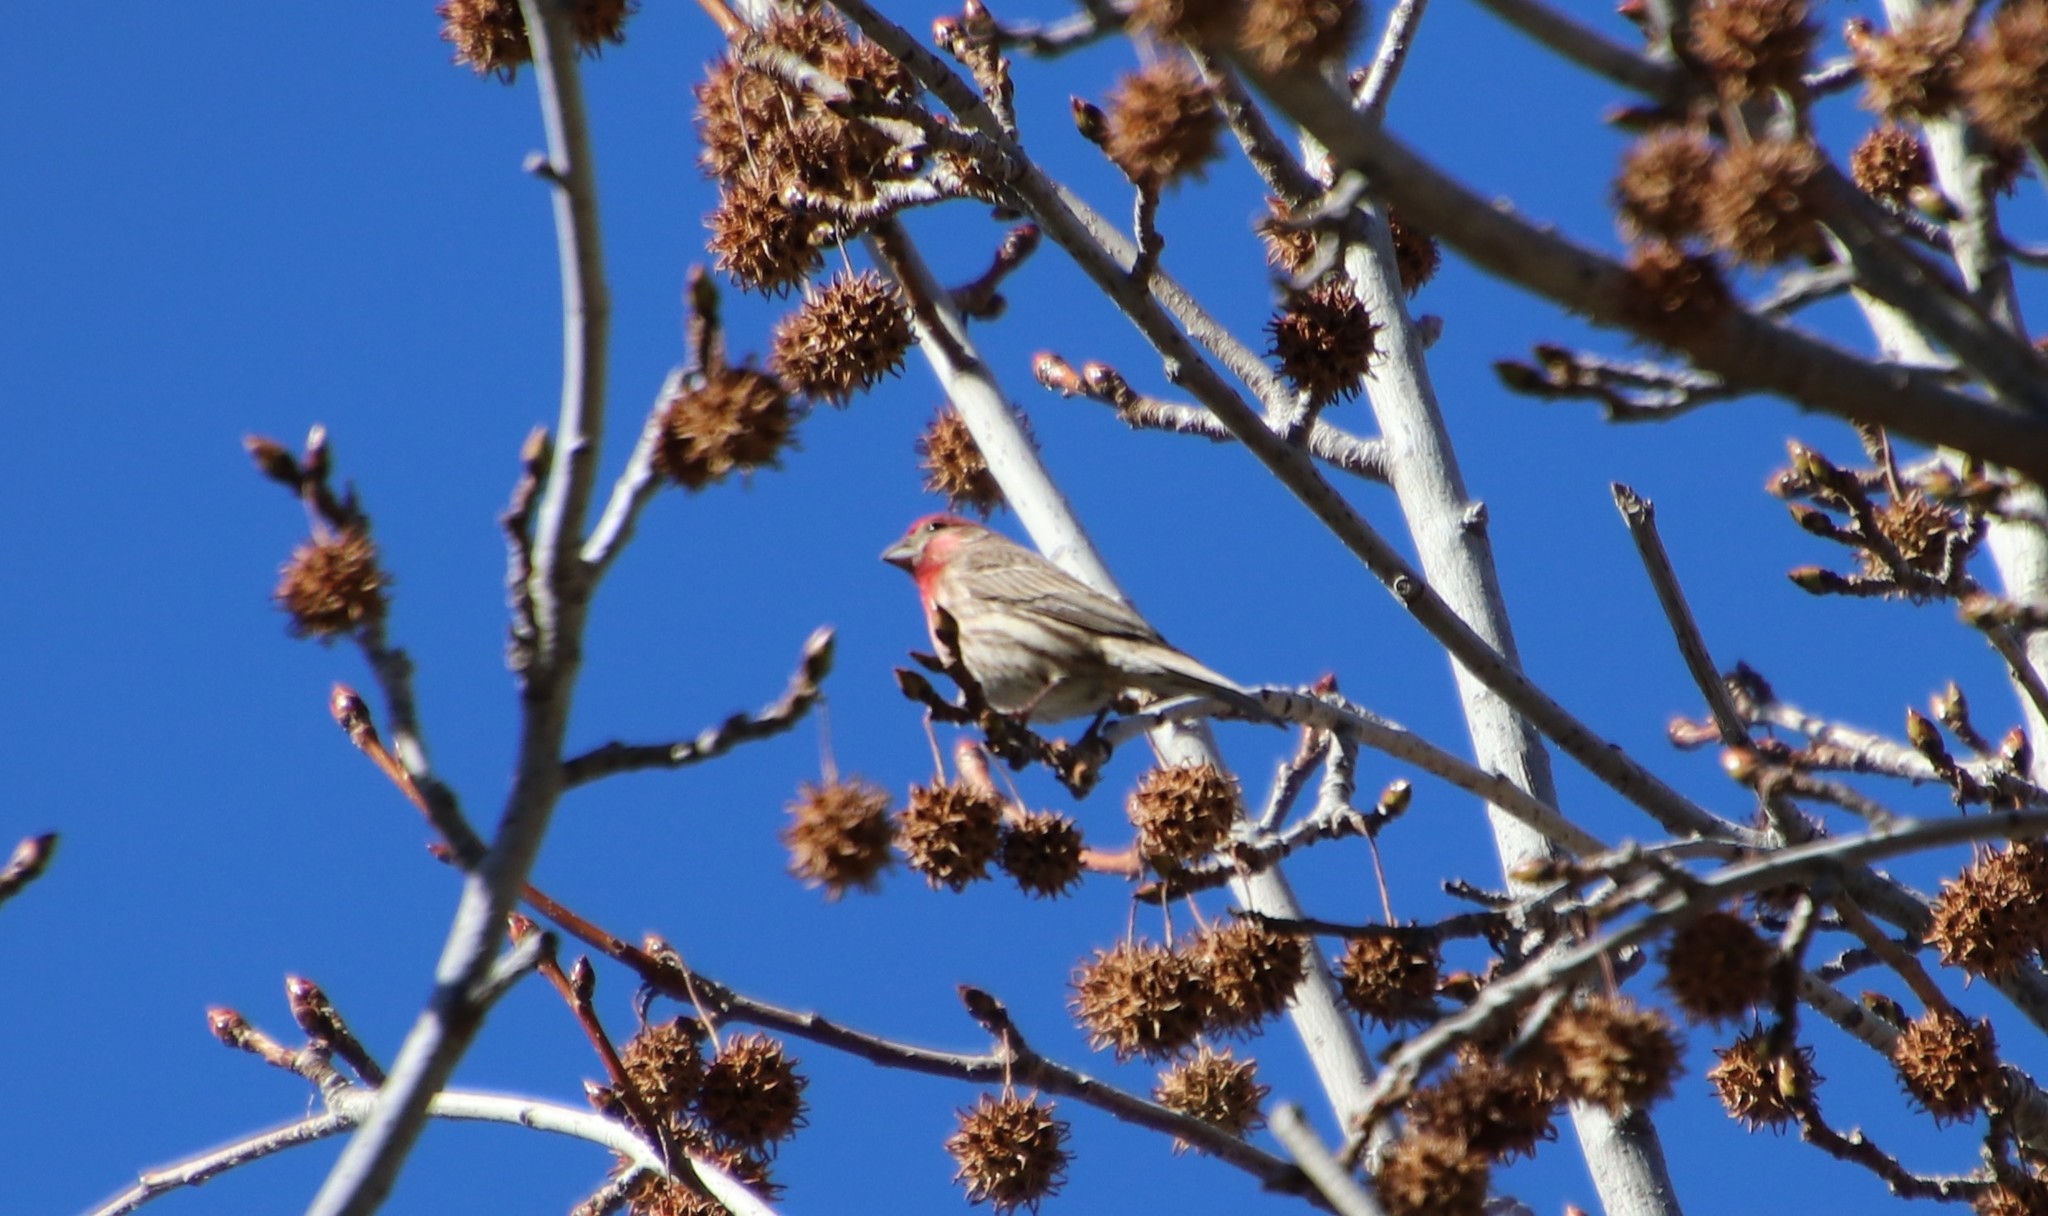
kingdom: Animalia
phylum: Chordata
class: Aves
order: Passeriformes
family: Fringillidae
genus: Haemorhous
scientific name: Haemorhous mexicanus
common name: House finch
